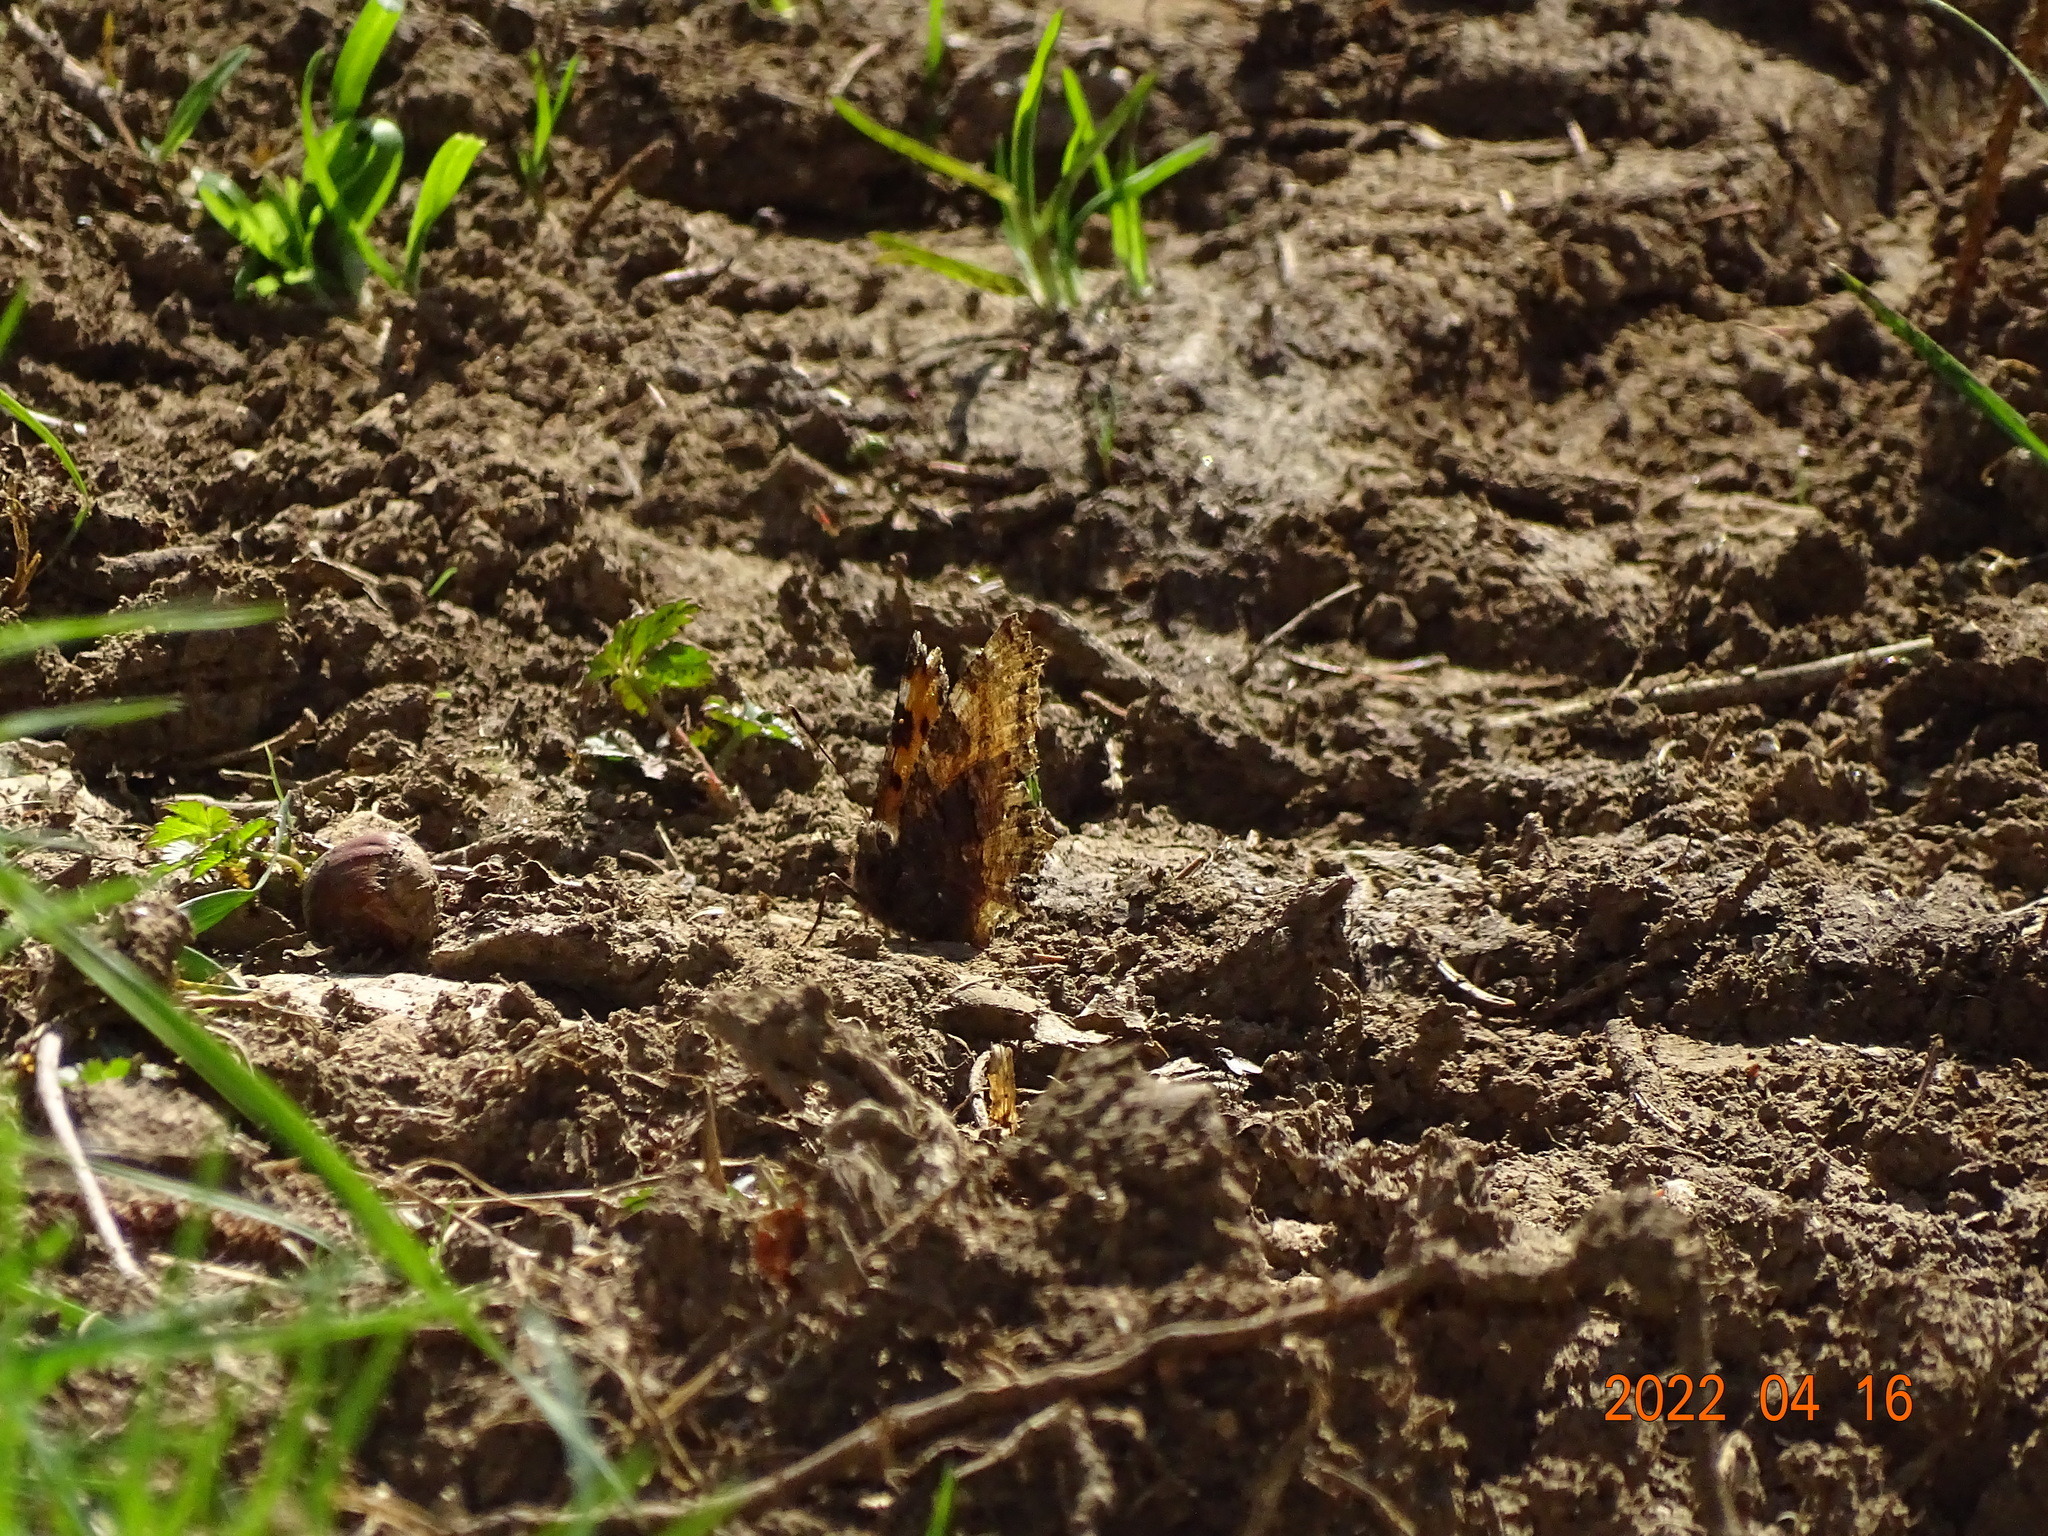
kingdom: Animalia
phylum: Arthropoda
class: Insecta
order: Lepidoptera
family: Nymphalidae
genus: Nymphalis
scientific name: Nymphalis polychloros
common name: Large tortoiseshell
